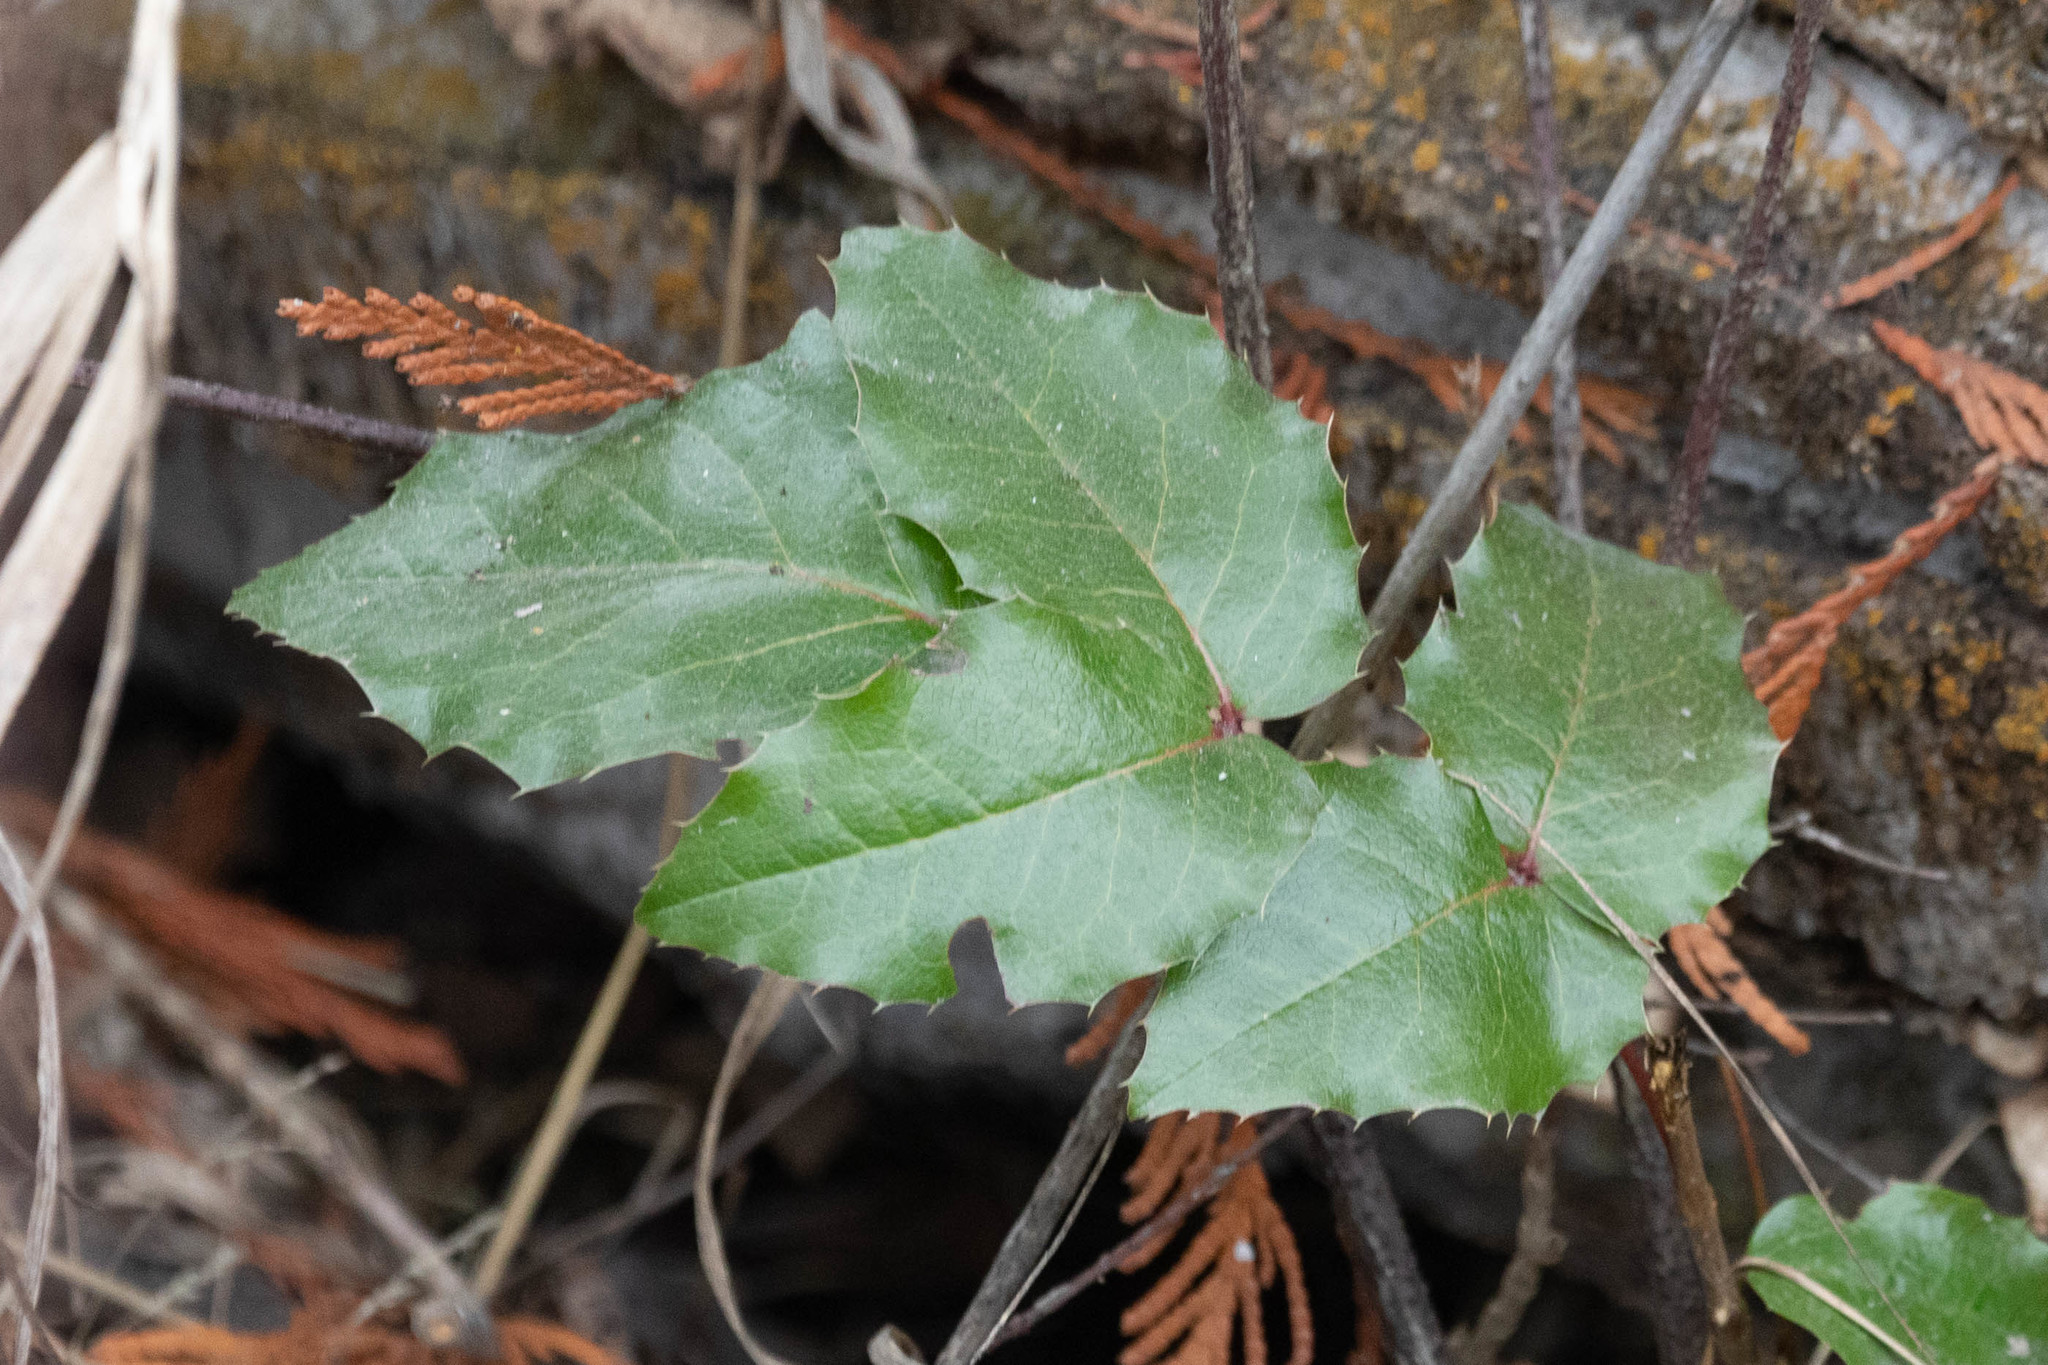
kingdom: Plantae
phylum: Tracheophyta
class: Magnoliopsida
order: Ranunculales
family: Berberidaceae
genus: Mahonia
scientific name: Mahonia aquifolium
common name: Oregon-grape
